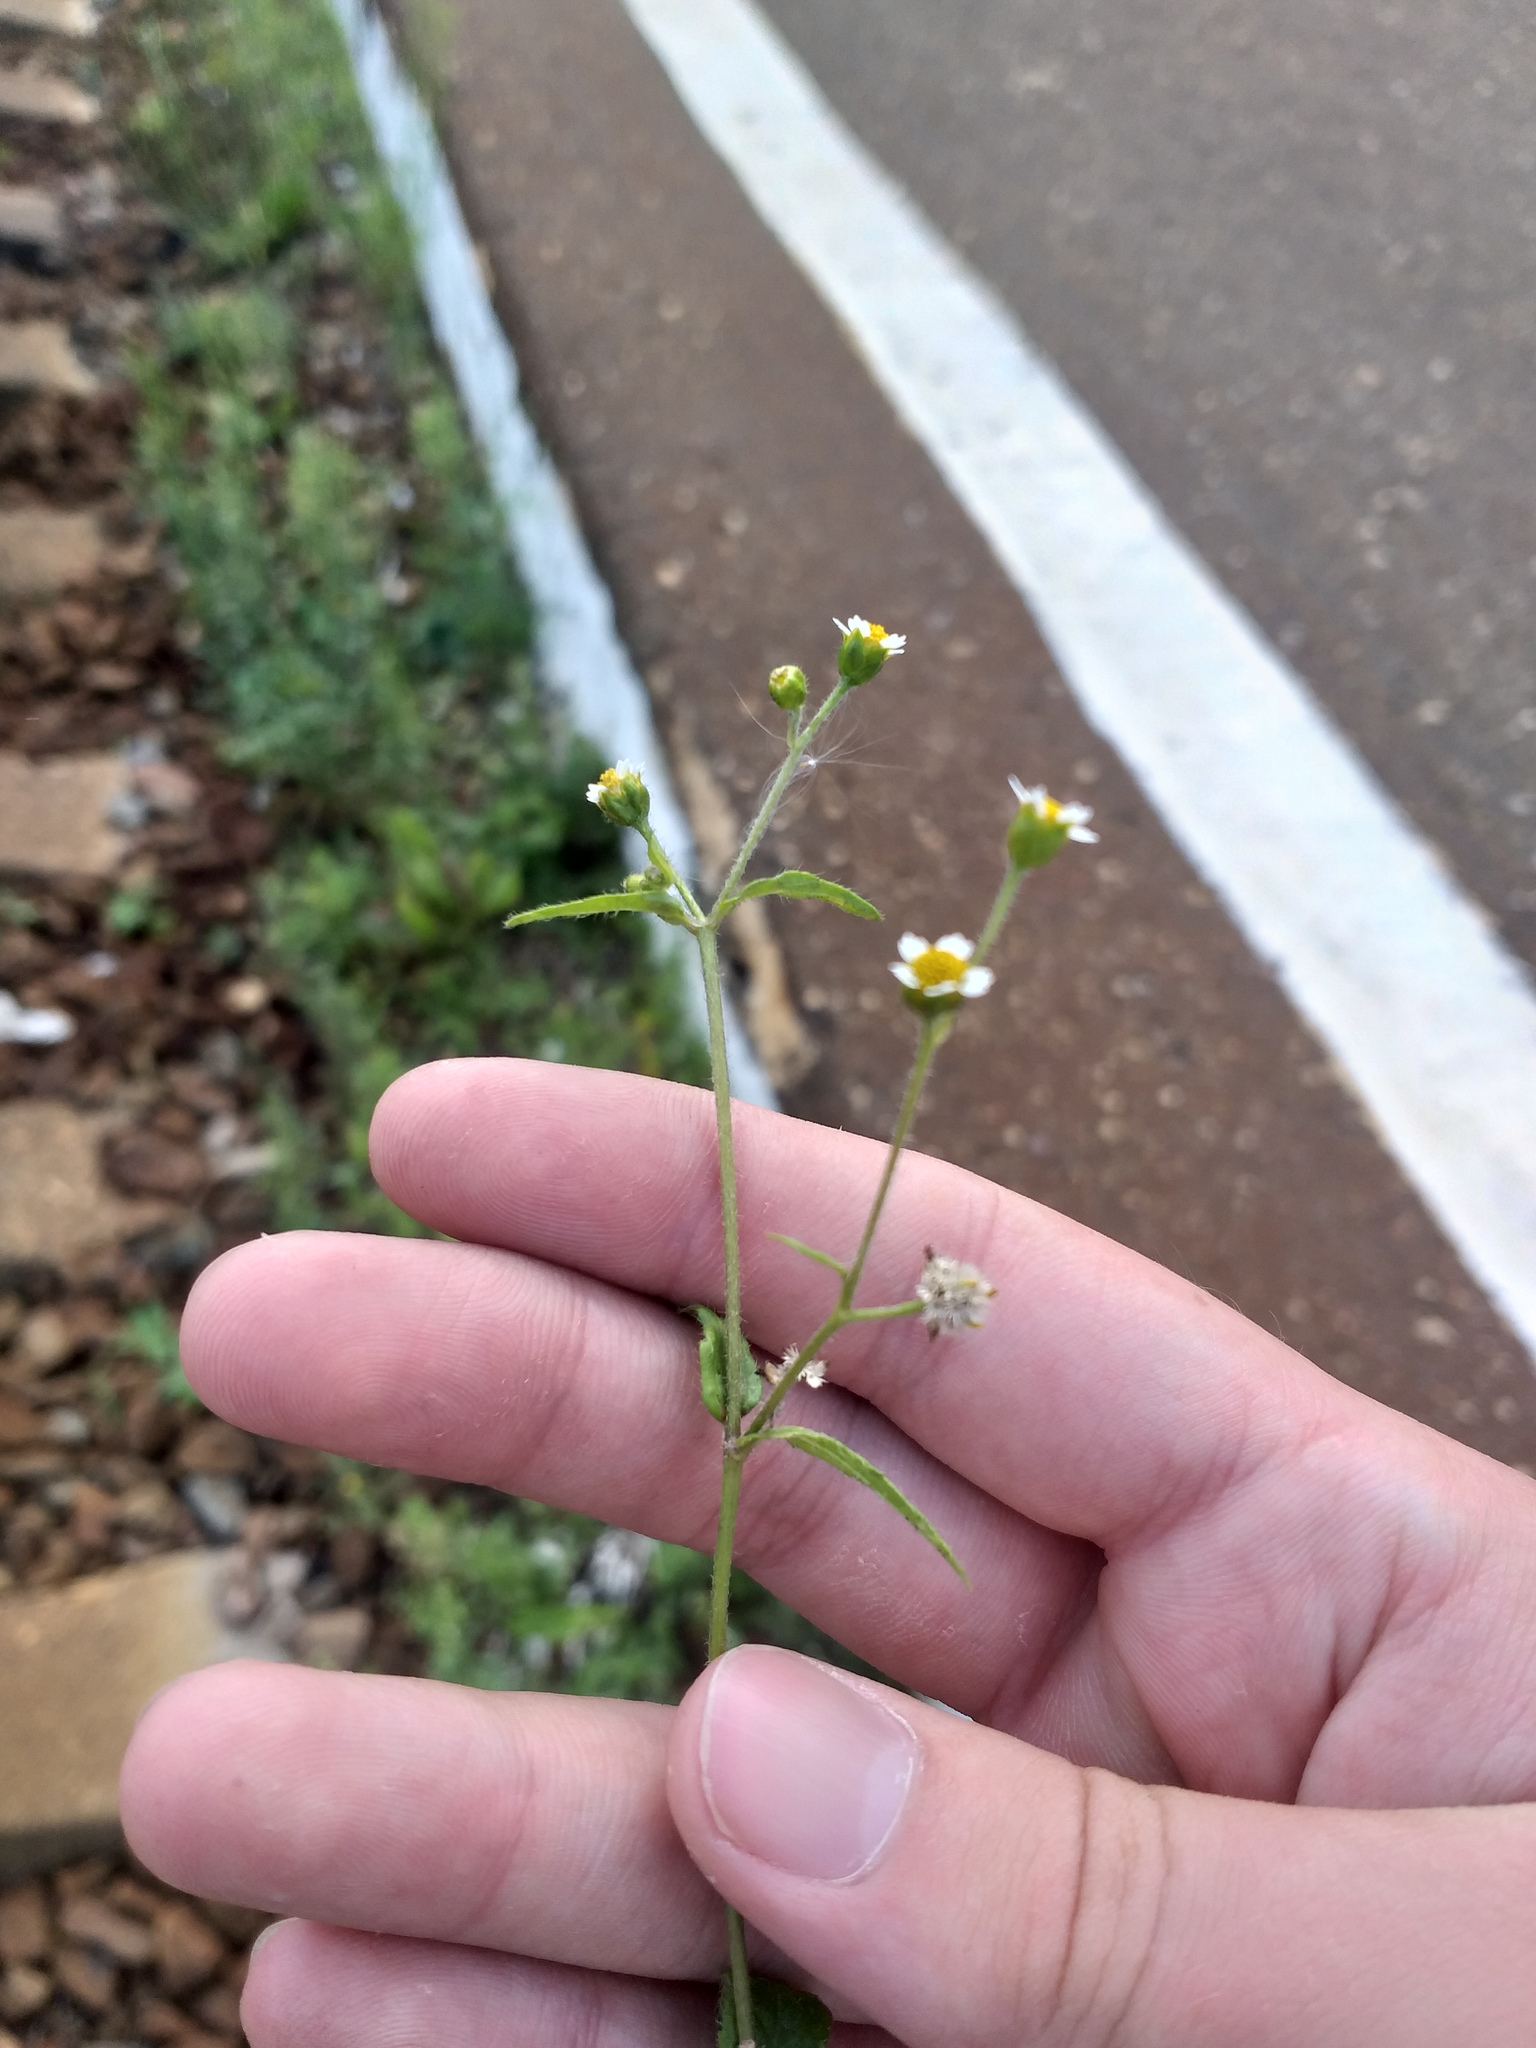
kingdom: Plantae
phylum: Tracheophyta
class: Magnoliopsida
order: Asterales
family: Asteraceae
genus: Galinsoga
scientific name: Galinsoga quadriradiata
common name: Shaggy soldier
